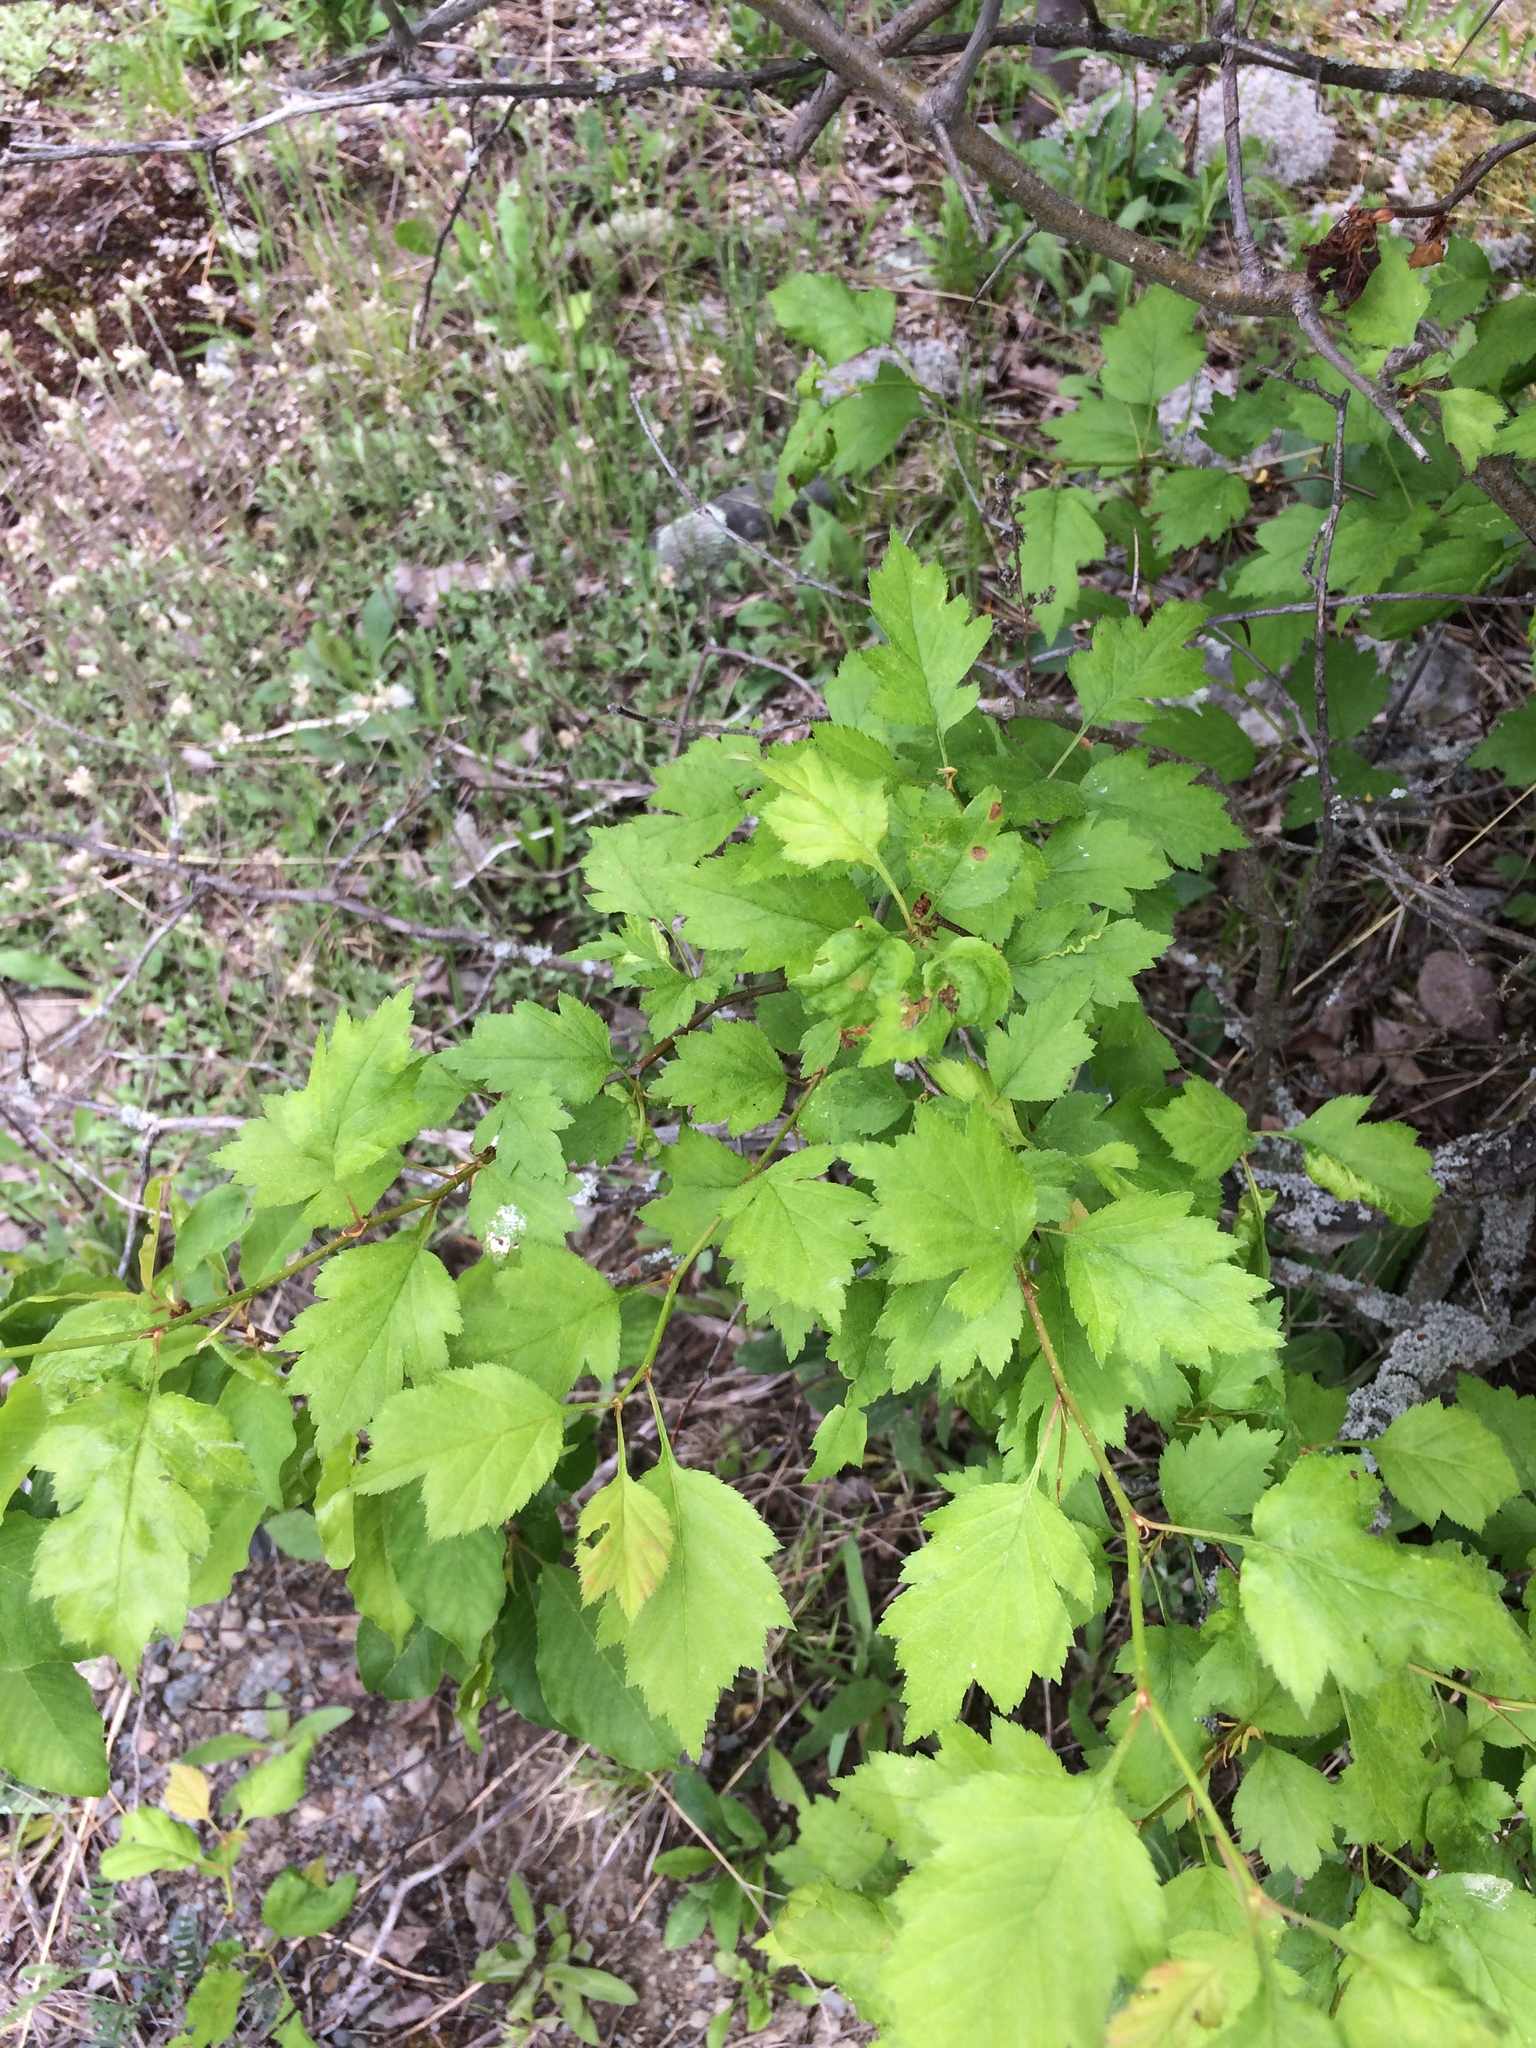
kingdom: Plantae
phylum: Tracheophyta
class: Magnoliopsida
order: Rosales
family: Rosaceae
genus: Crataegus
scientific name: Crataegus fluviatilis
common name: Fort sheridan hawthorn
